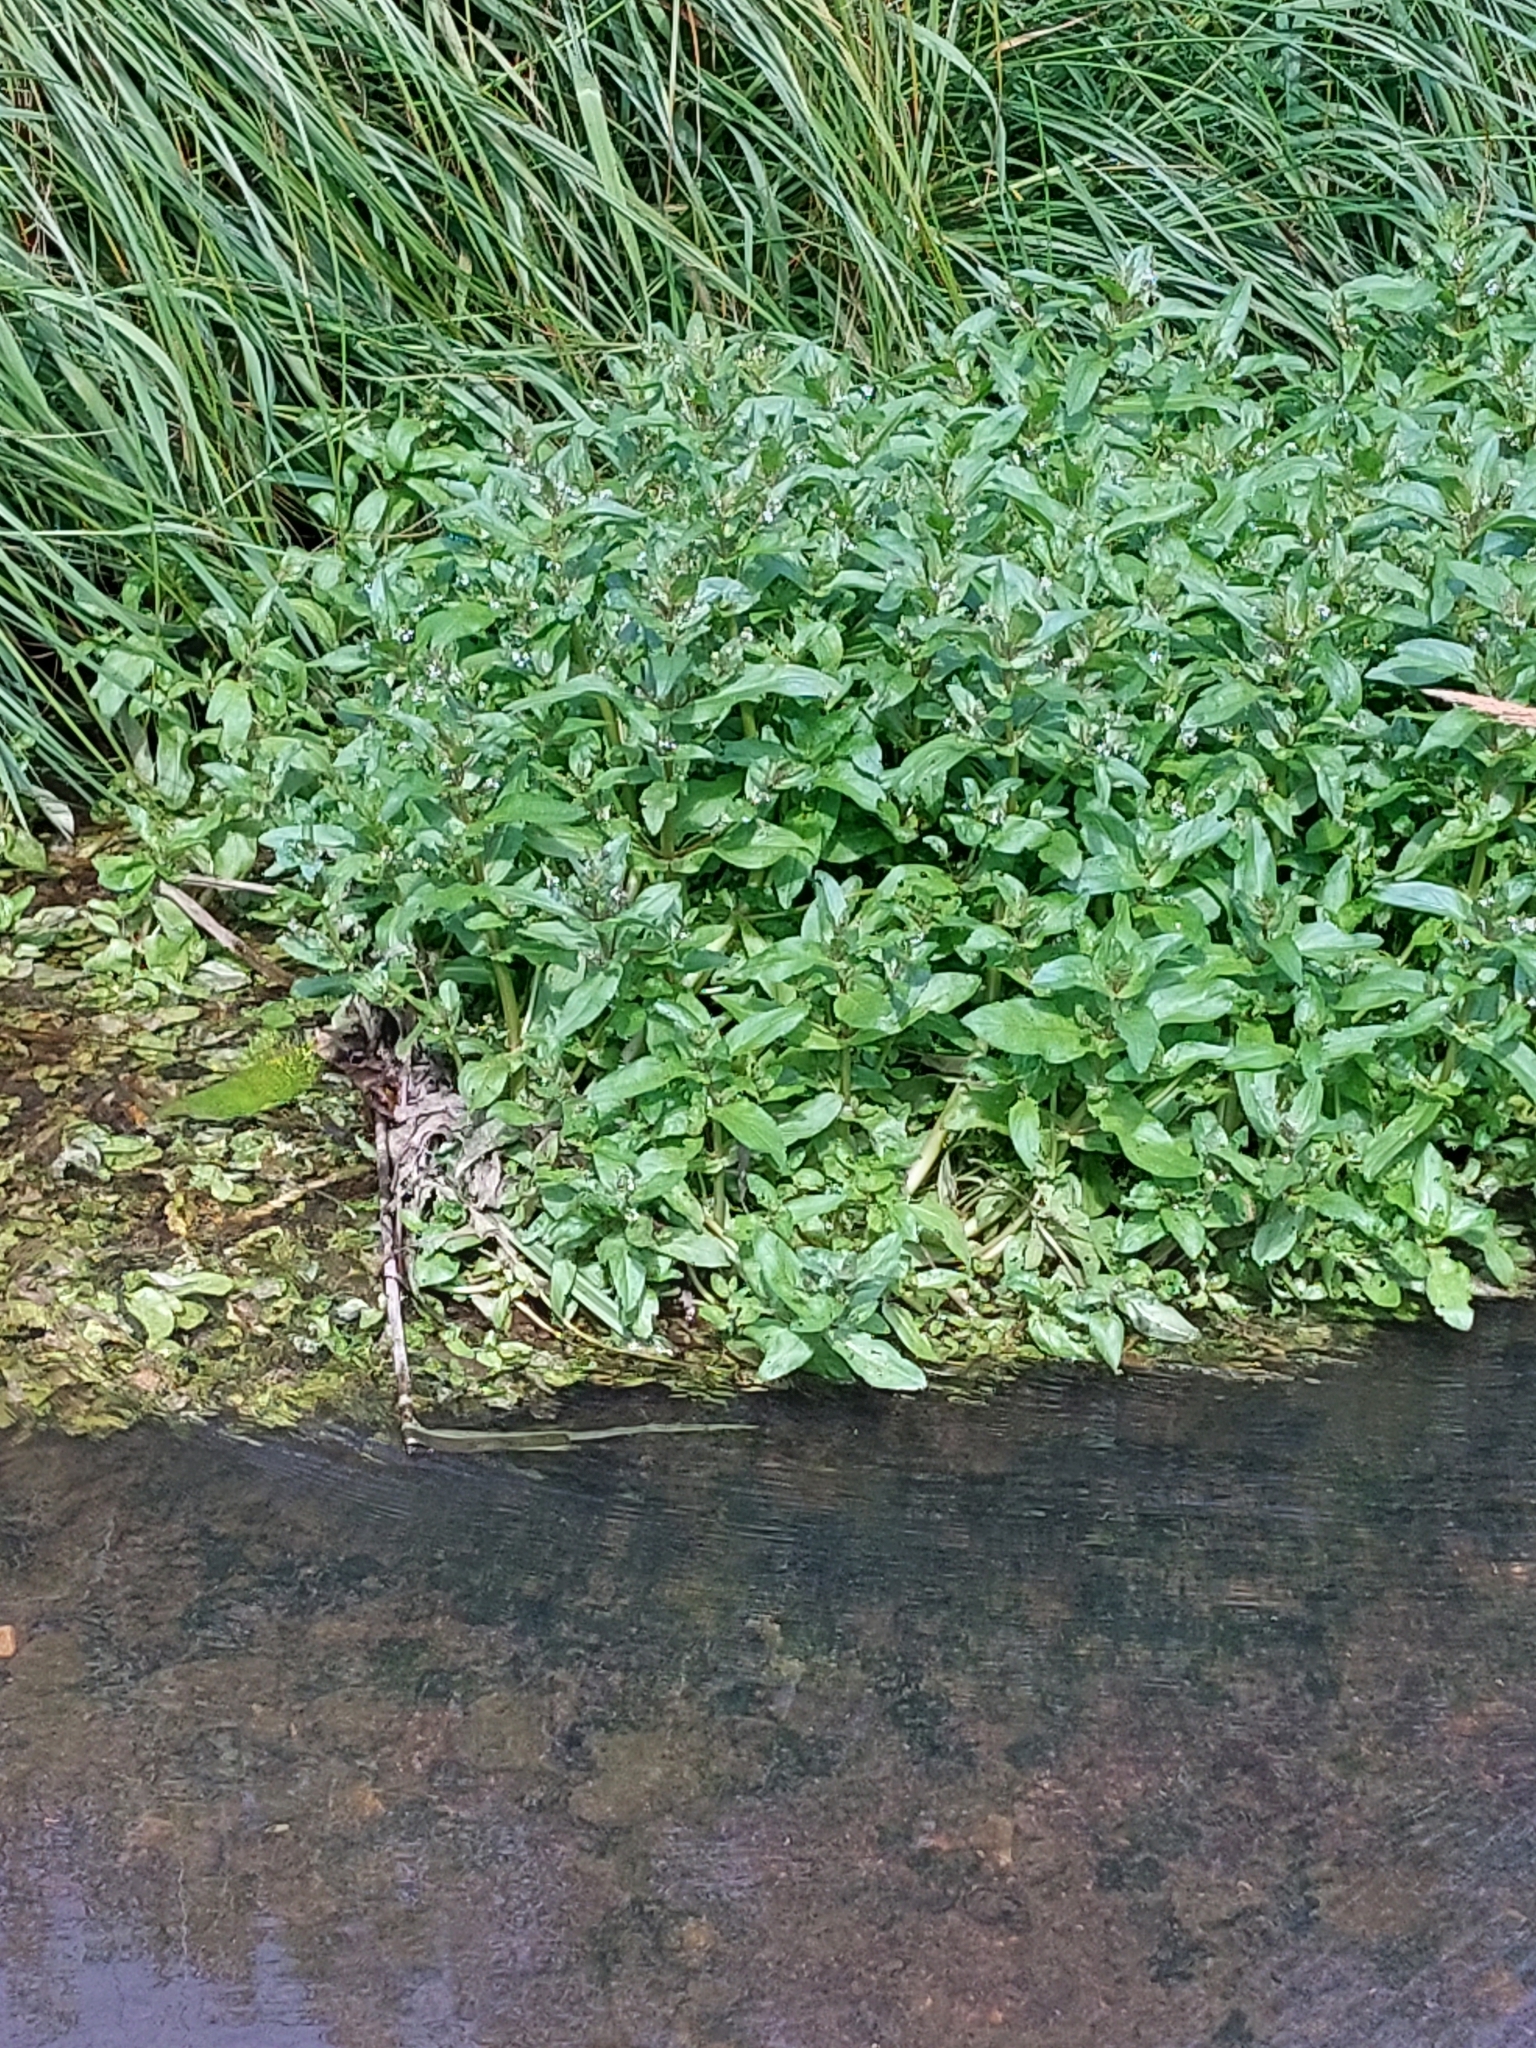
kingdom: Plantae
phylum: Tracheophyta
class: Magnoliopsida
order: Lamiales
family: Plantaginaceae
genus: Veronica
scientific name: Veronica anagallis-aquatica
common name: Water speedwell
